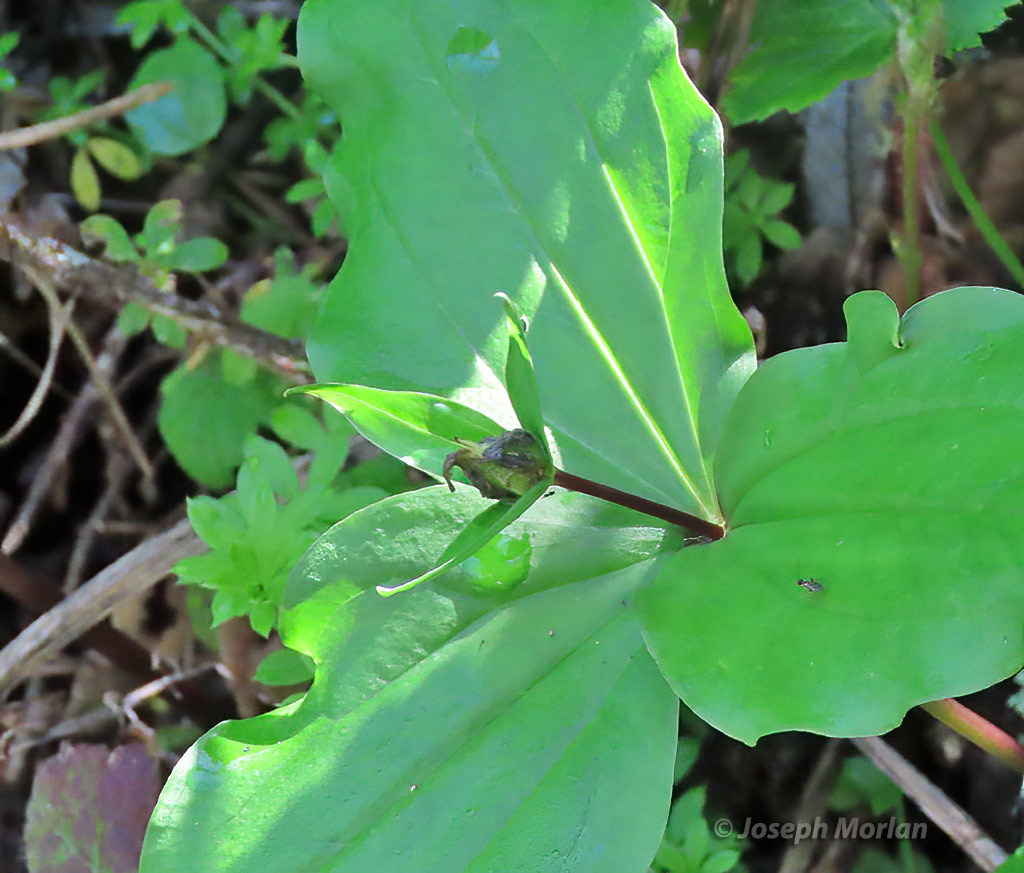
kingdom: Plantae
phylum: Tracheophyta
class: Liliopsida
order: Liliales
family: Melanthiaceae
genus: Trillium
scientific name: Trillium ovatum
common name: Pacific trillium
